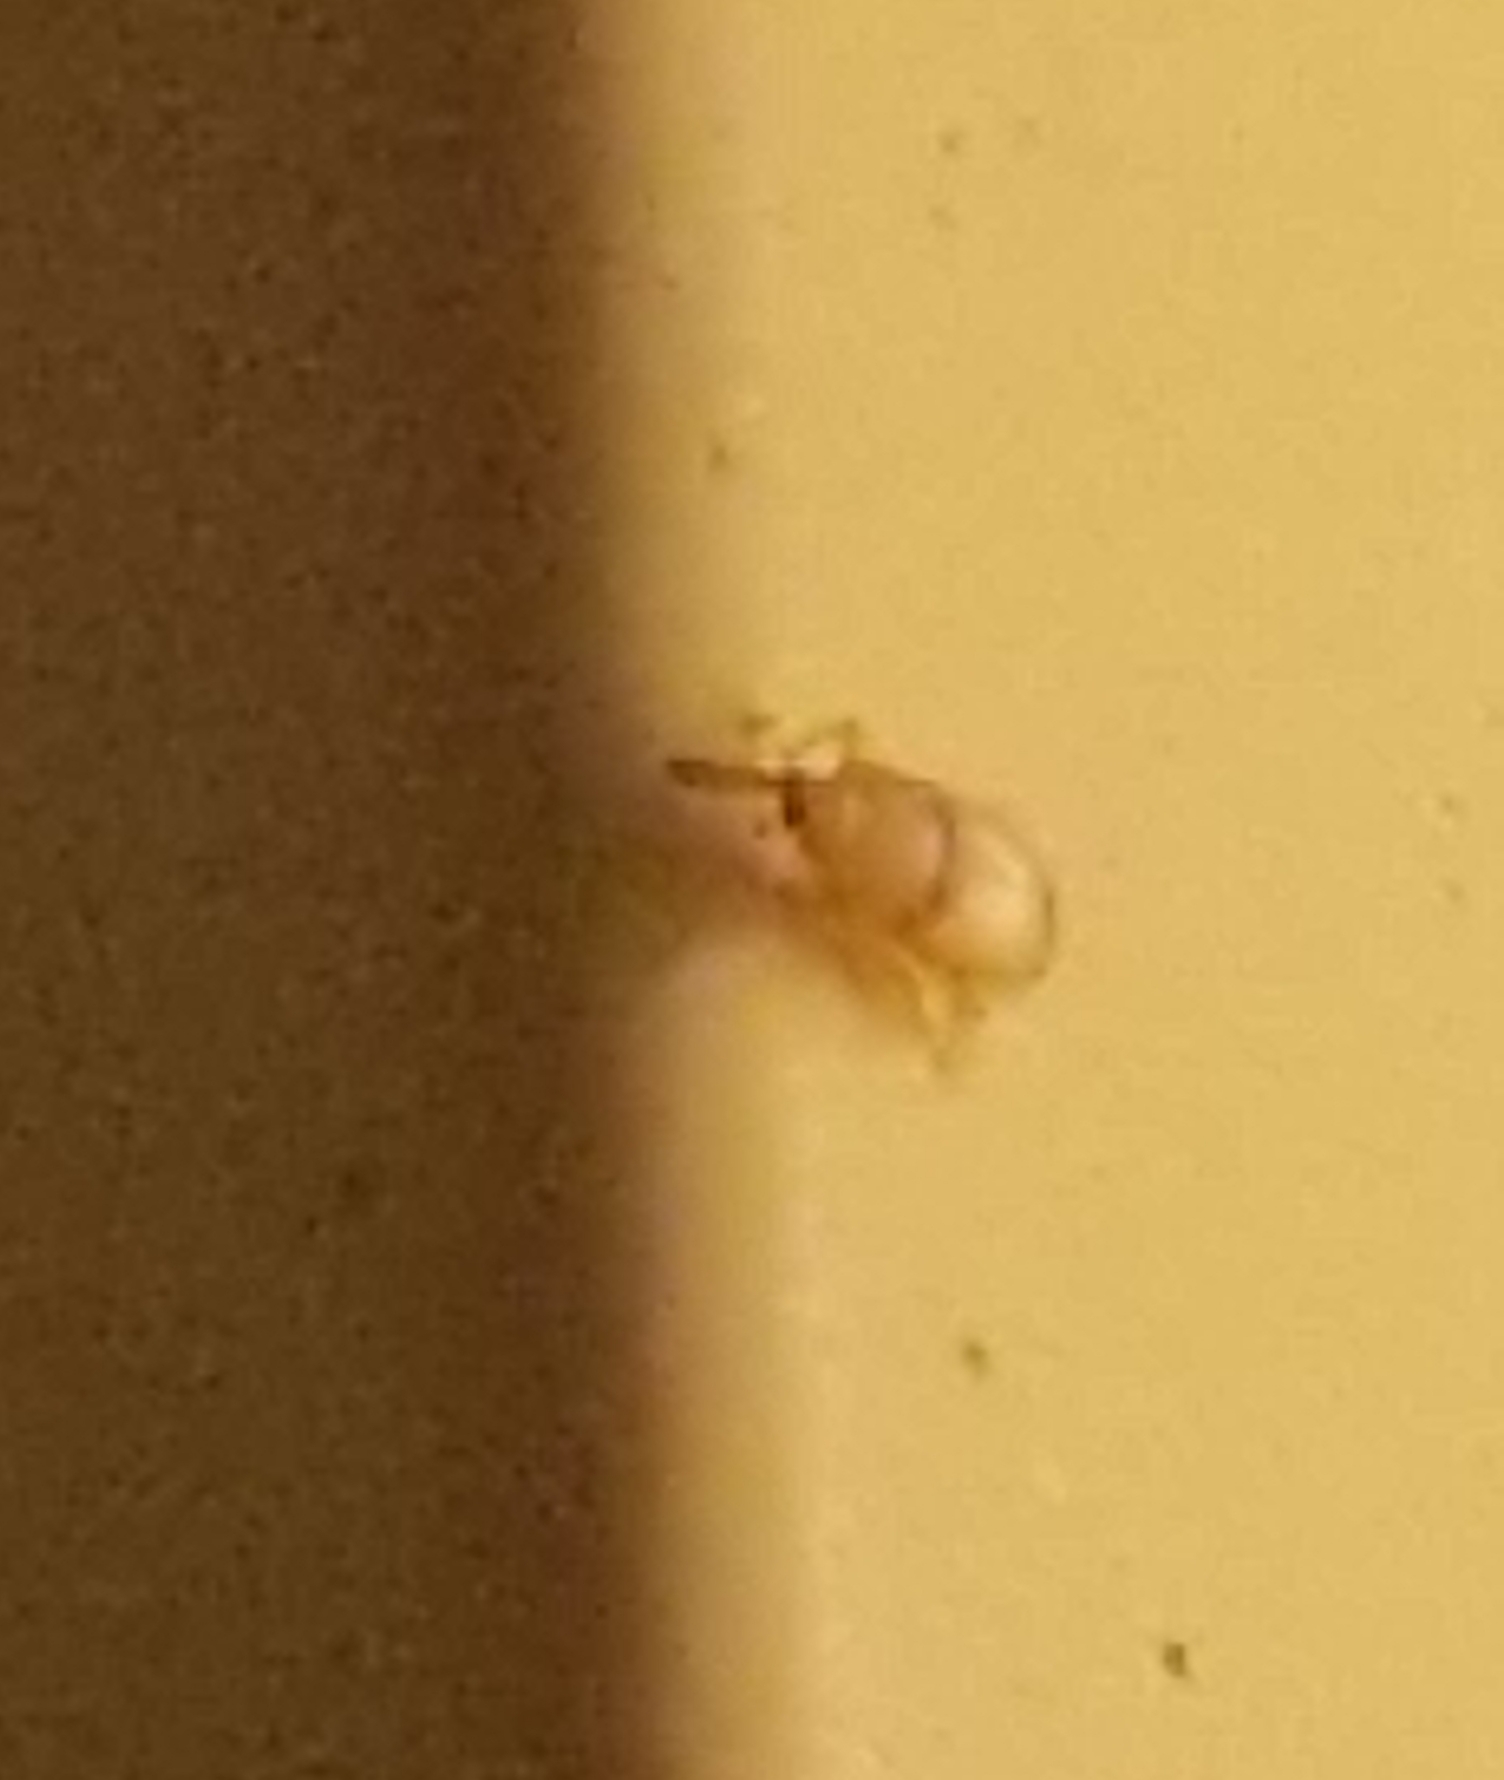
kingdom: Animalia
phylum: Arthropoda
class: Insecta
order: Coleoptera
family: Curculionidae
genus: Notolomus
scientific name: Notolomus basalis
